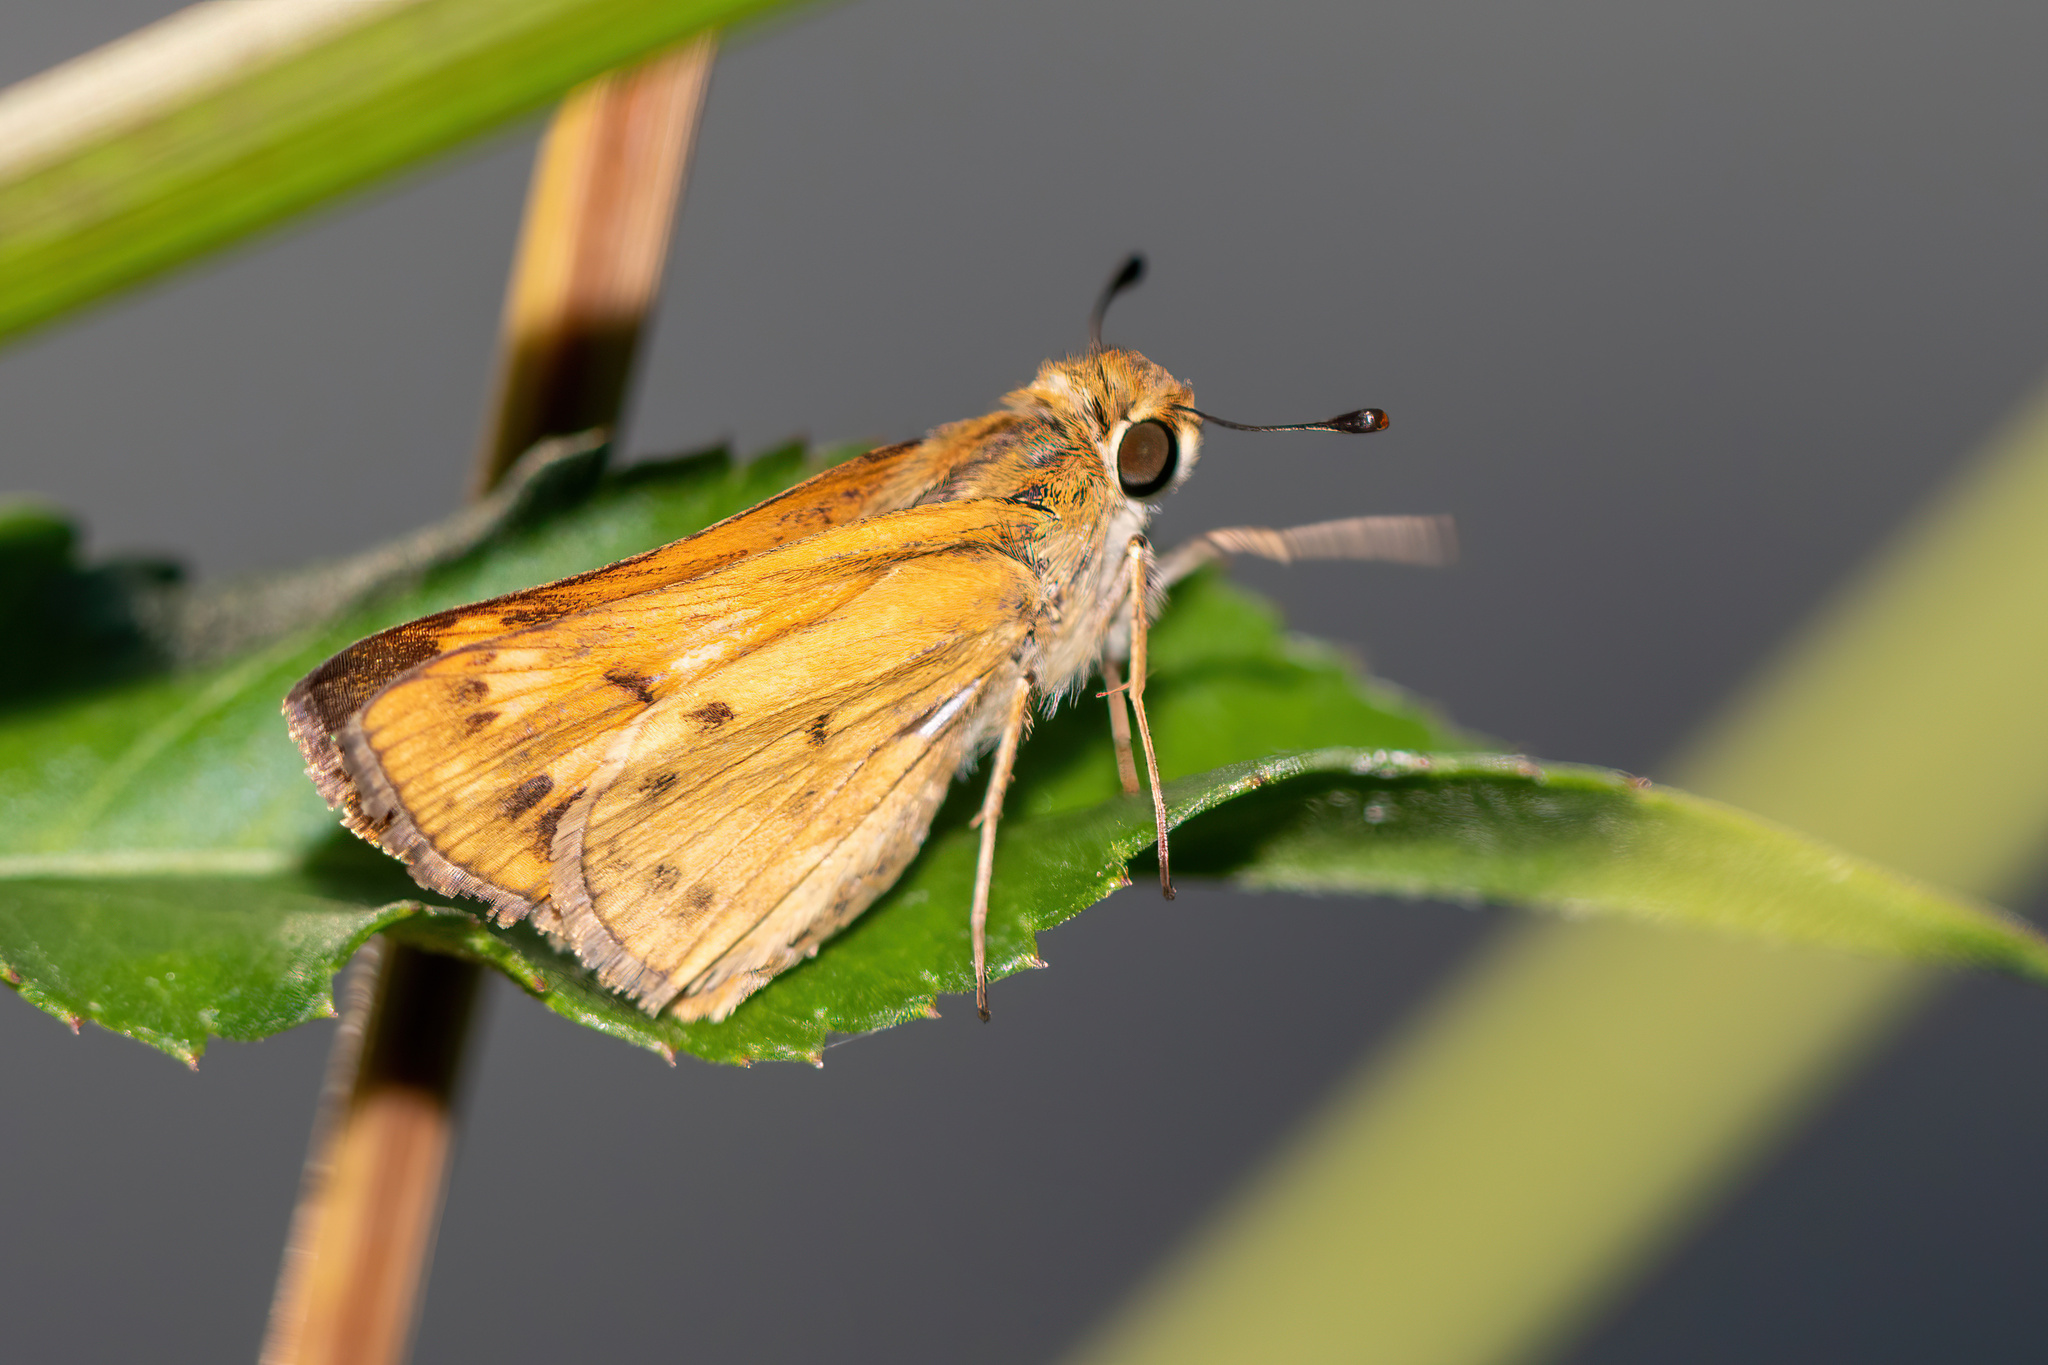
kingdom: Animalia
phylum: Arthropoda
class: Insecta
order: Lepidoptera
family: Hesperiidae
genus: Hylephila
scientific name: Hylephila phyleus
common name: Fiery skipper
